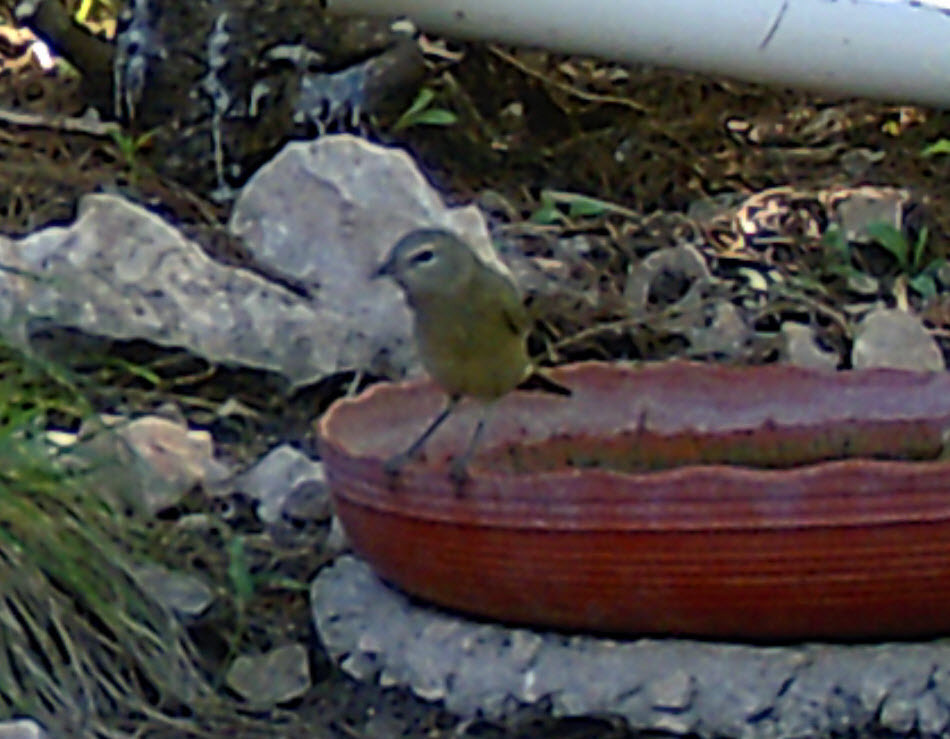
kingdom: Animalia
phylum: Chordata
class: Aves
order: Passeriformes
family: Parulidae
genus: Leiothlypis
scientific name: Leiothlypis celata
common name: Orange-crowned warbler
